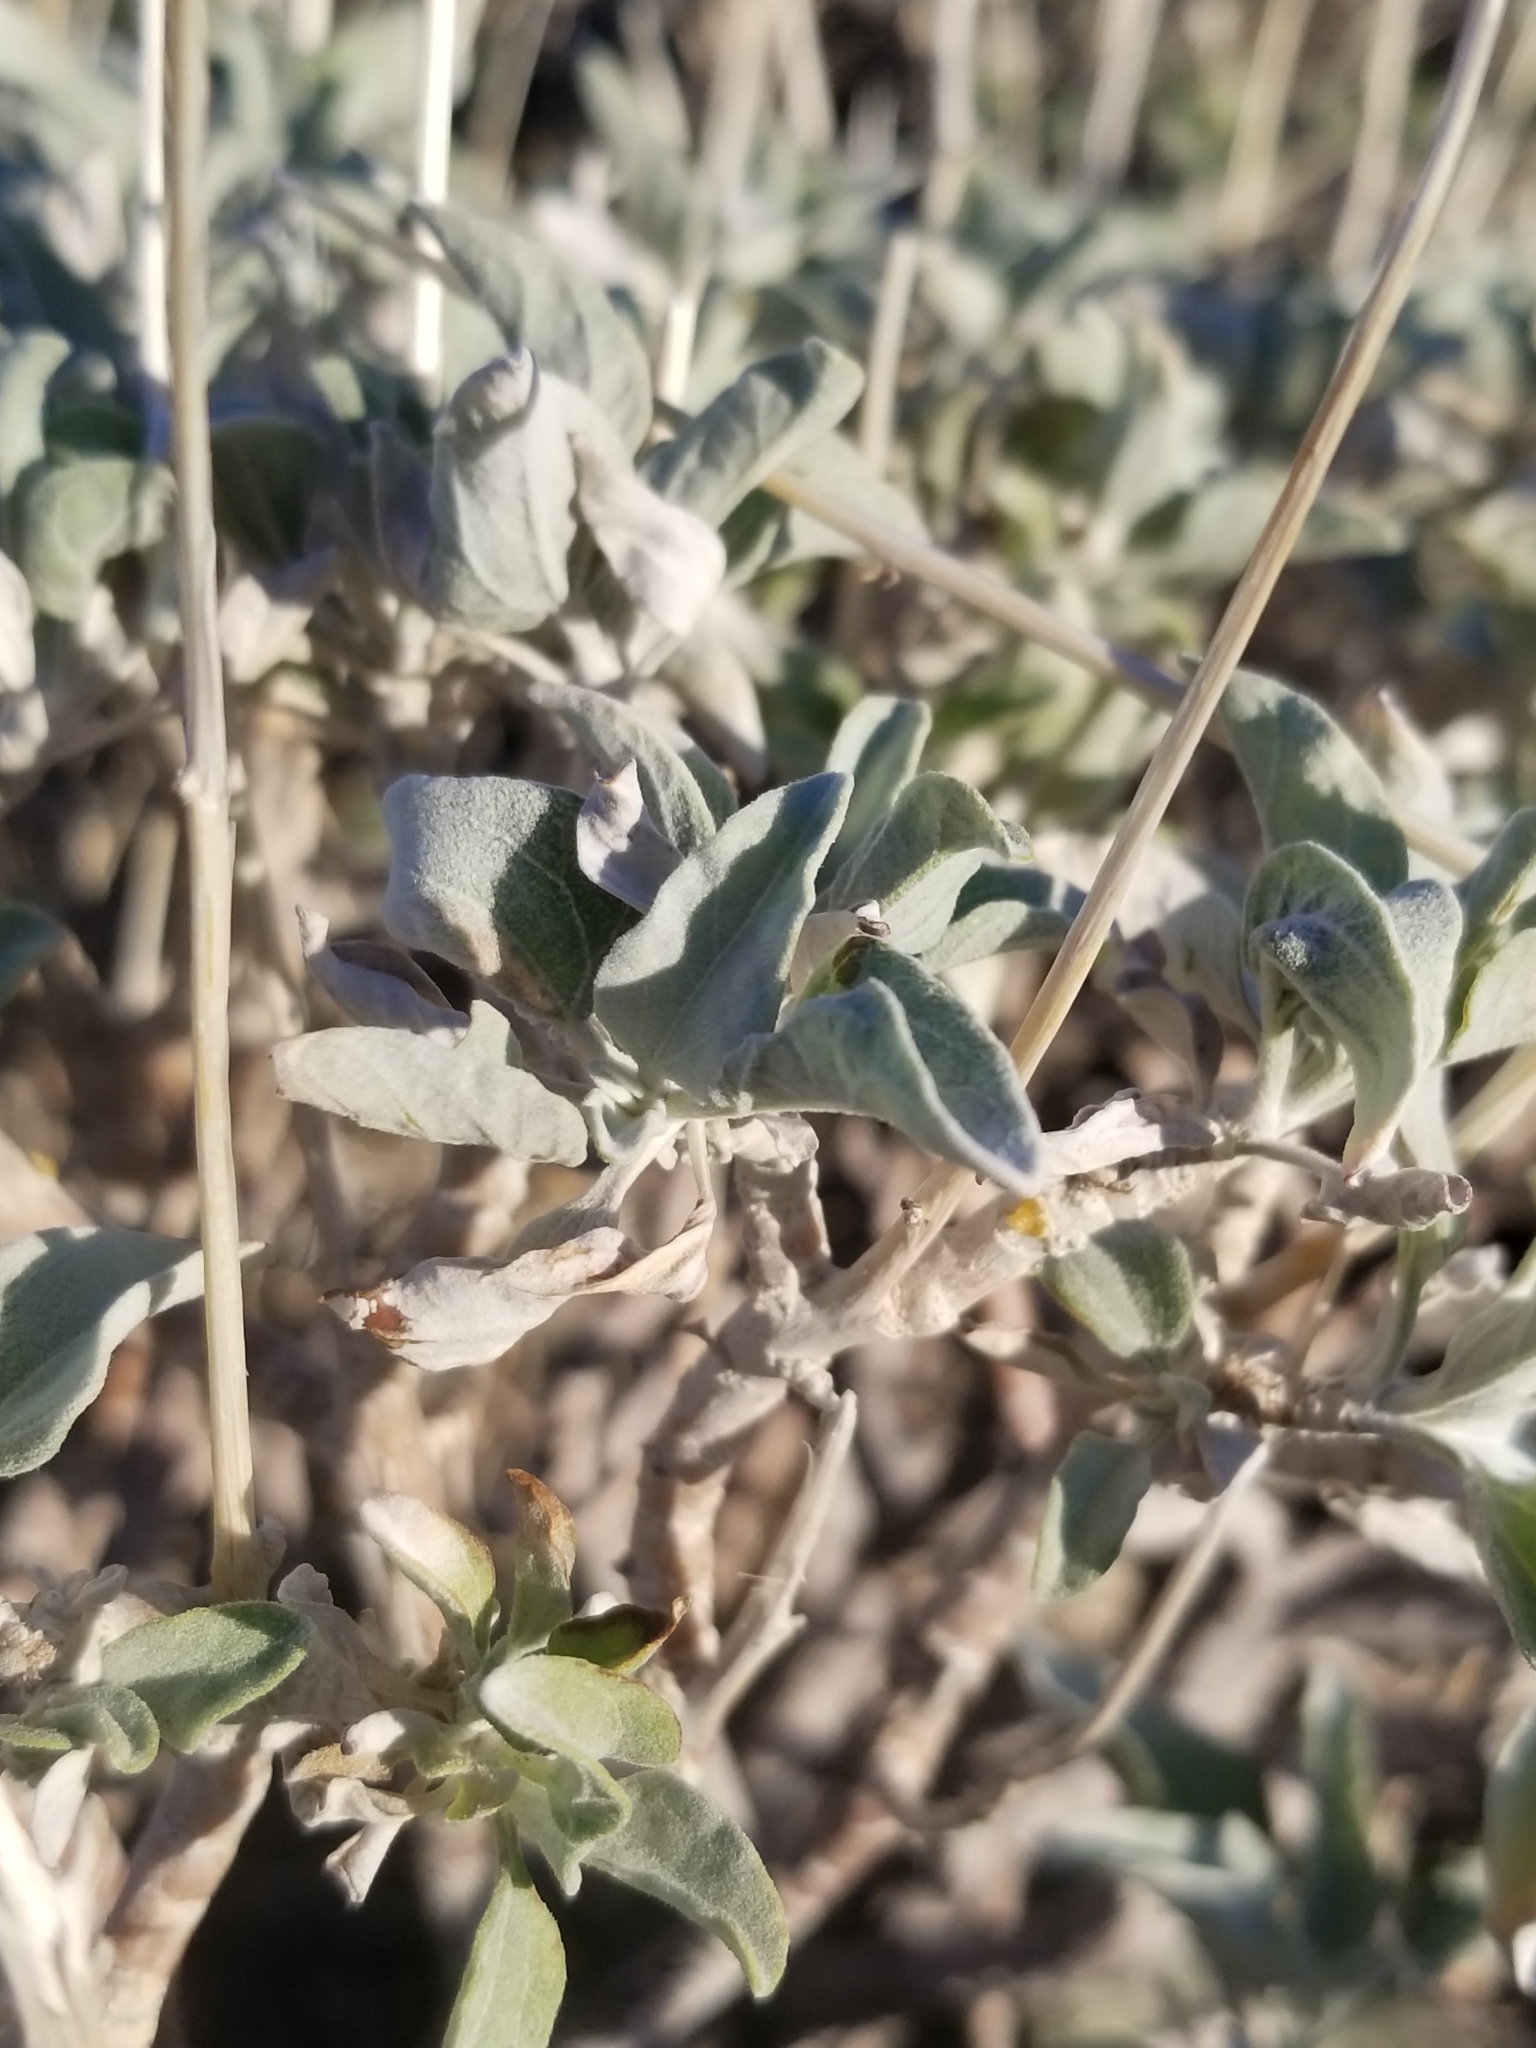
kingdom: Plantae
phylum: Tracheophyta
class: Magnoliopsida
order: Asterales
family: Asteraceae
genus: Encelia
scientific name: Encelia farinosa
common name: Brittlebush
